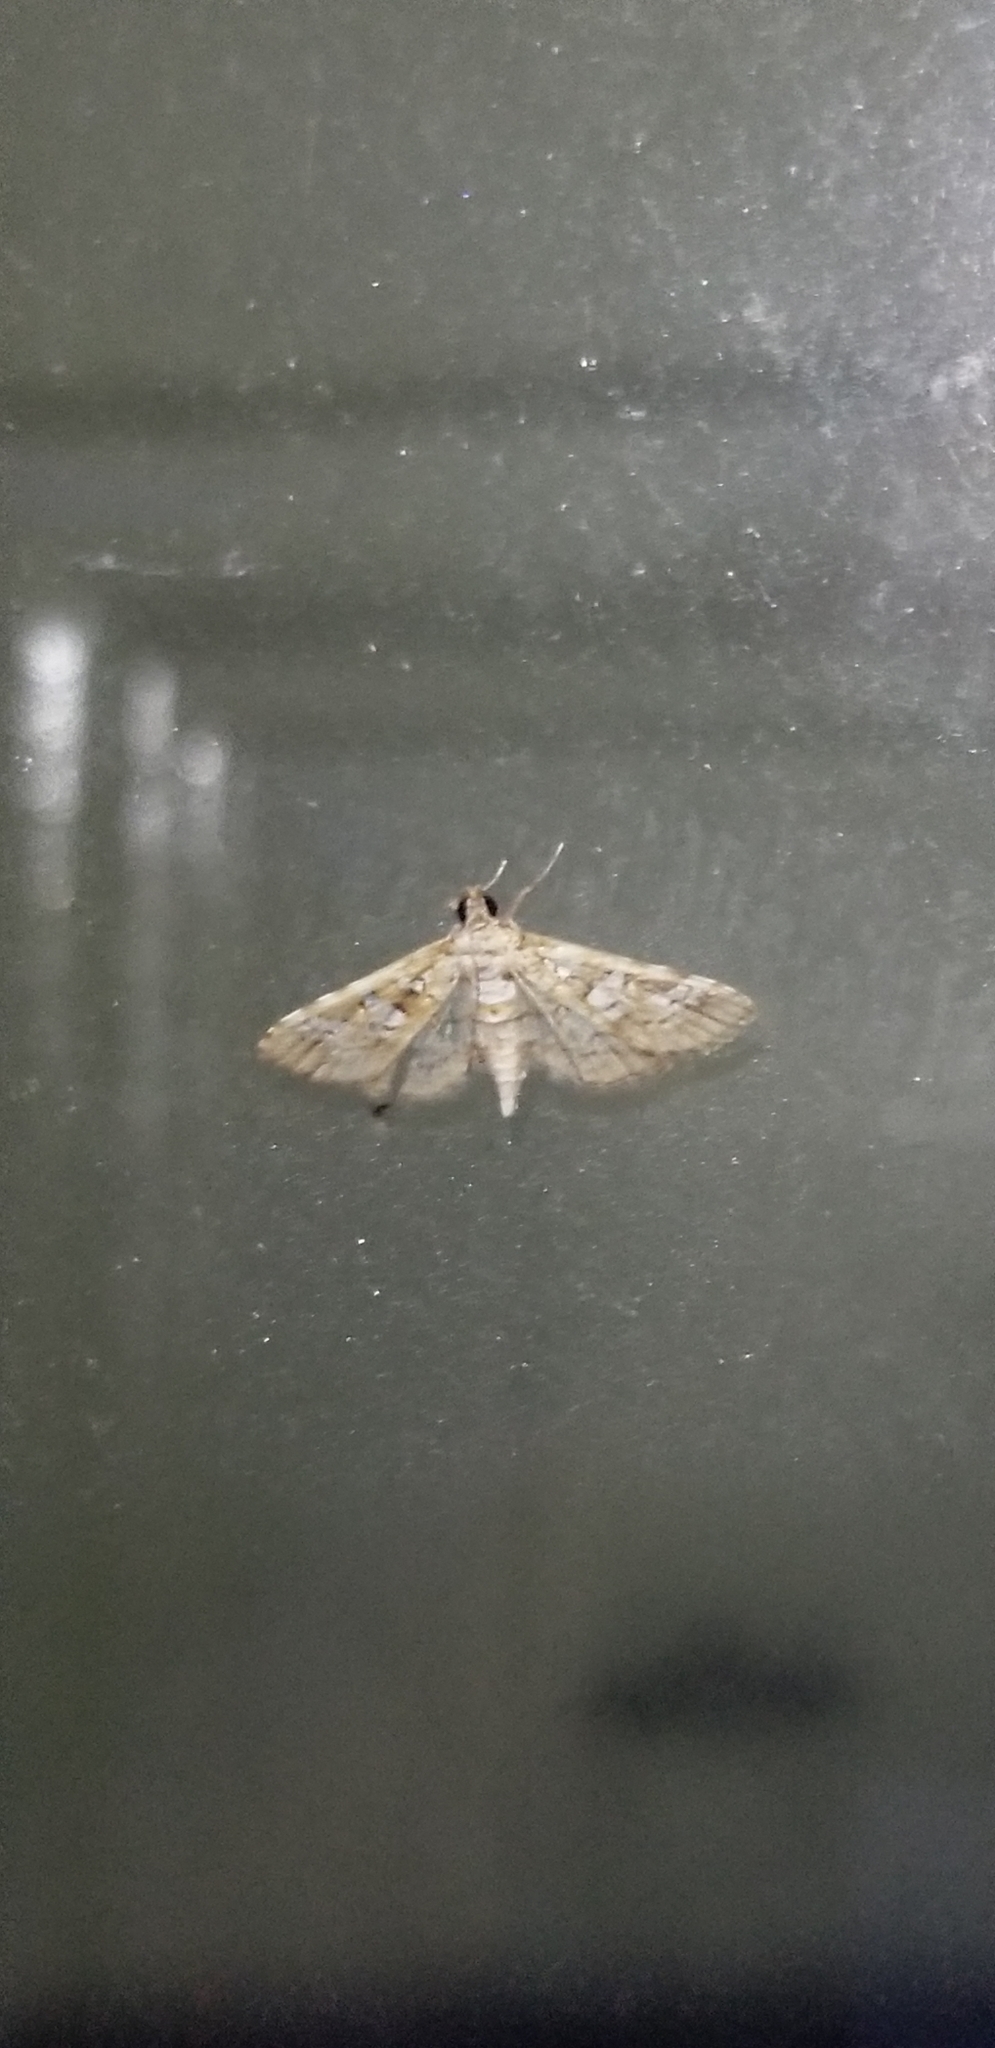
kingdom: Animalia
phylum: Arthropoda
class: Insecta
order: Lepidoptera
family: Crambidae
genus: Samea
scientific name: Samea multiplicalis
